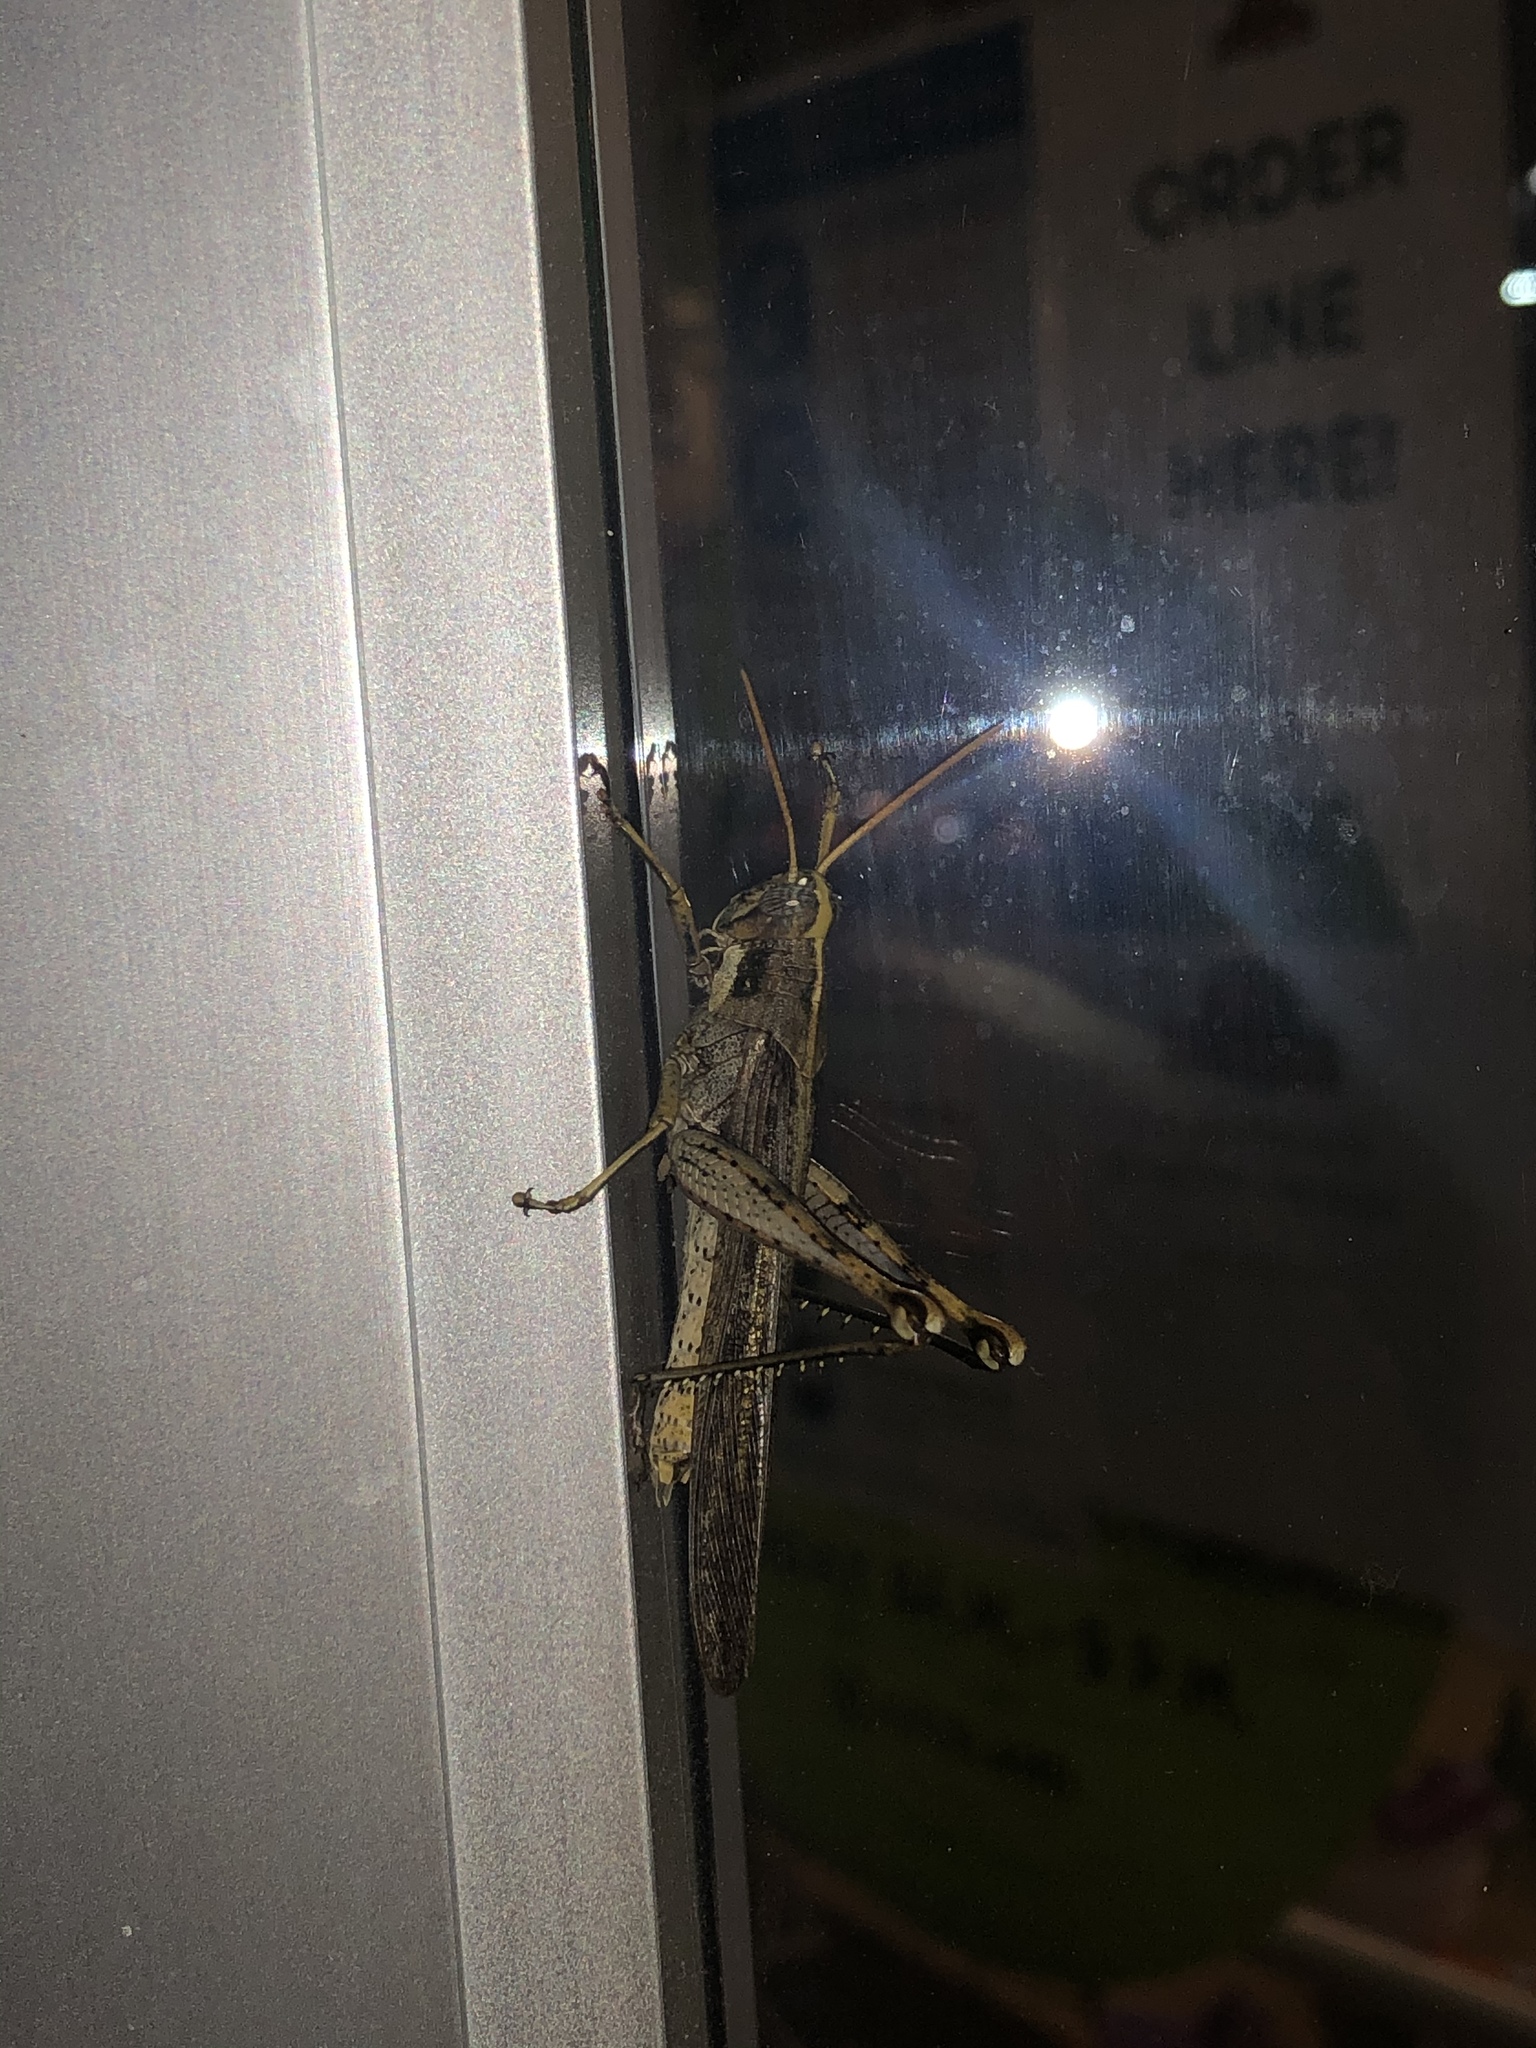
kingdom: Animalia
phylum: Arthropoda
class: Insecta
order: Orthoptera
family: Acrididae
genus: Schistocerca
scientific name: Schistocerca nitens
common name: Vagrant grasshopper
